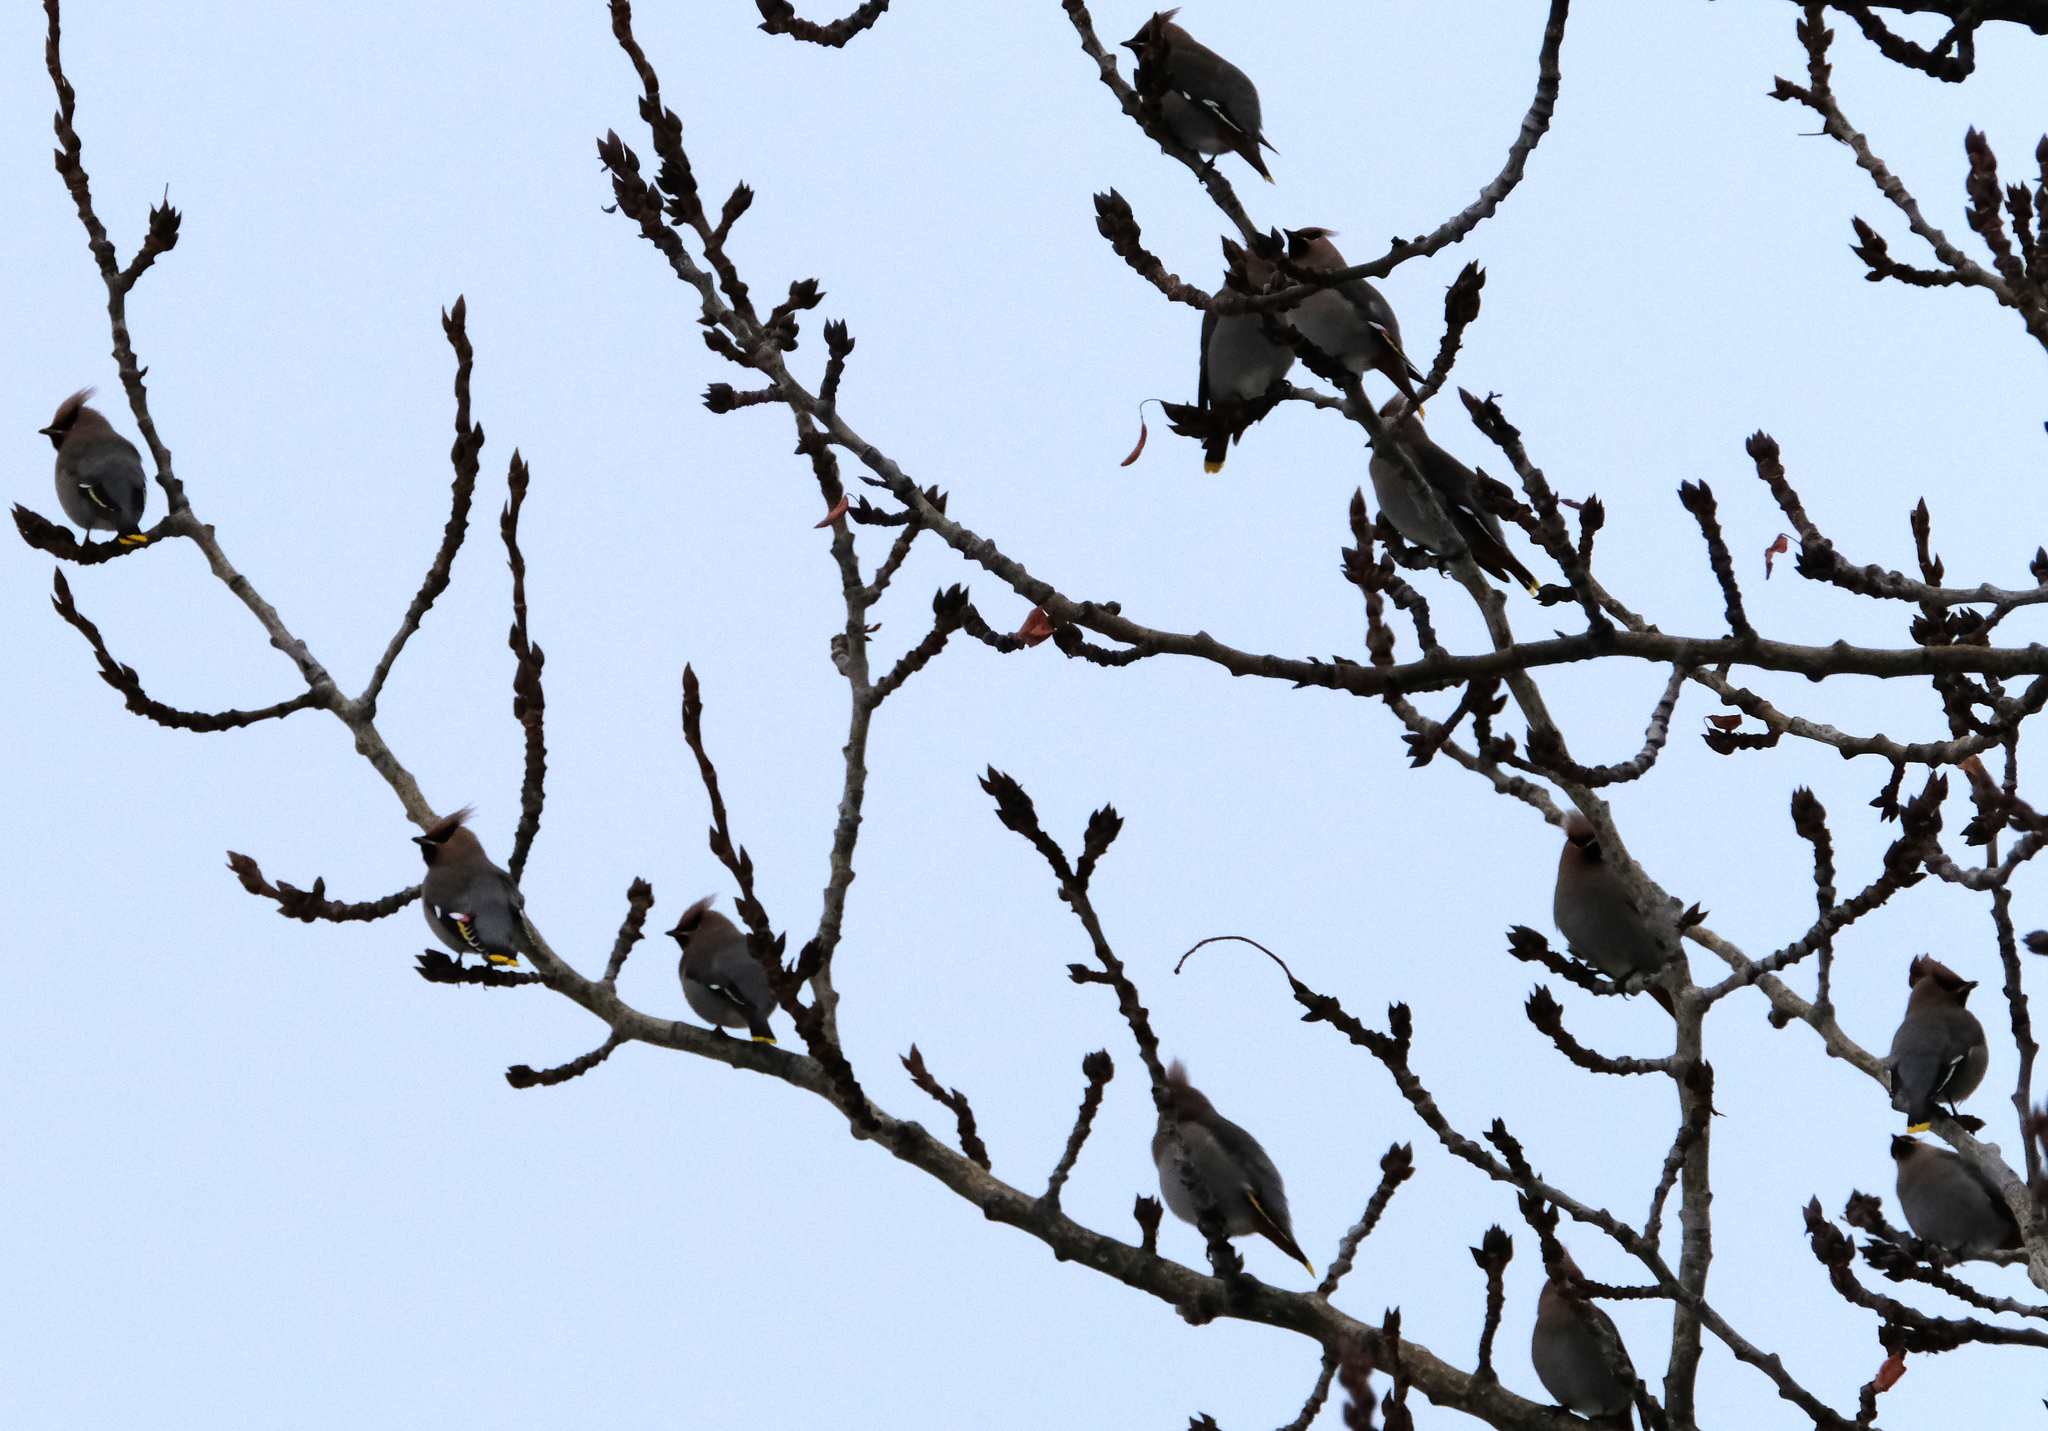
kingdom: Animalia
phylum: Chordata
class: Aves
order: Passeriformes
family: Bombycillidae
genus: Bombycilla
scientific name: Bombycilla garrulus
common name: Bohemian waxwing
